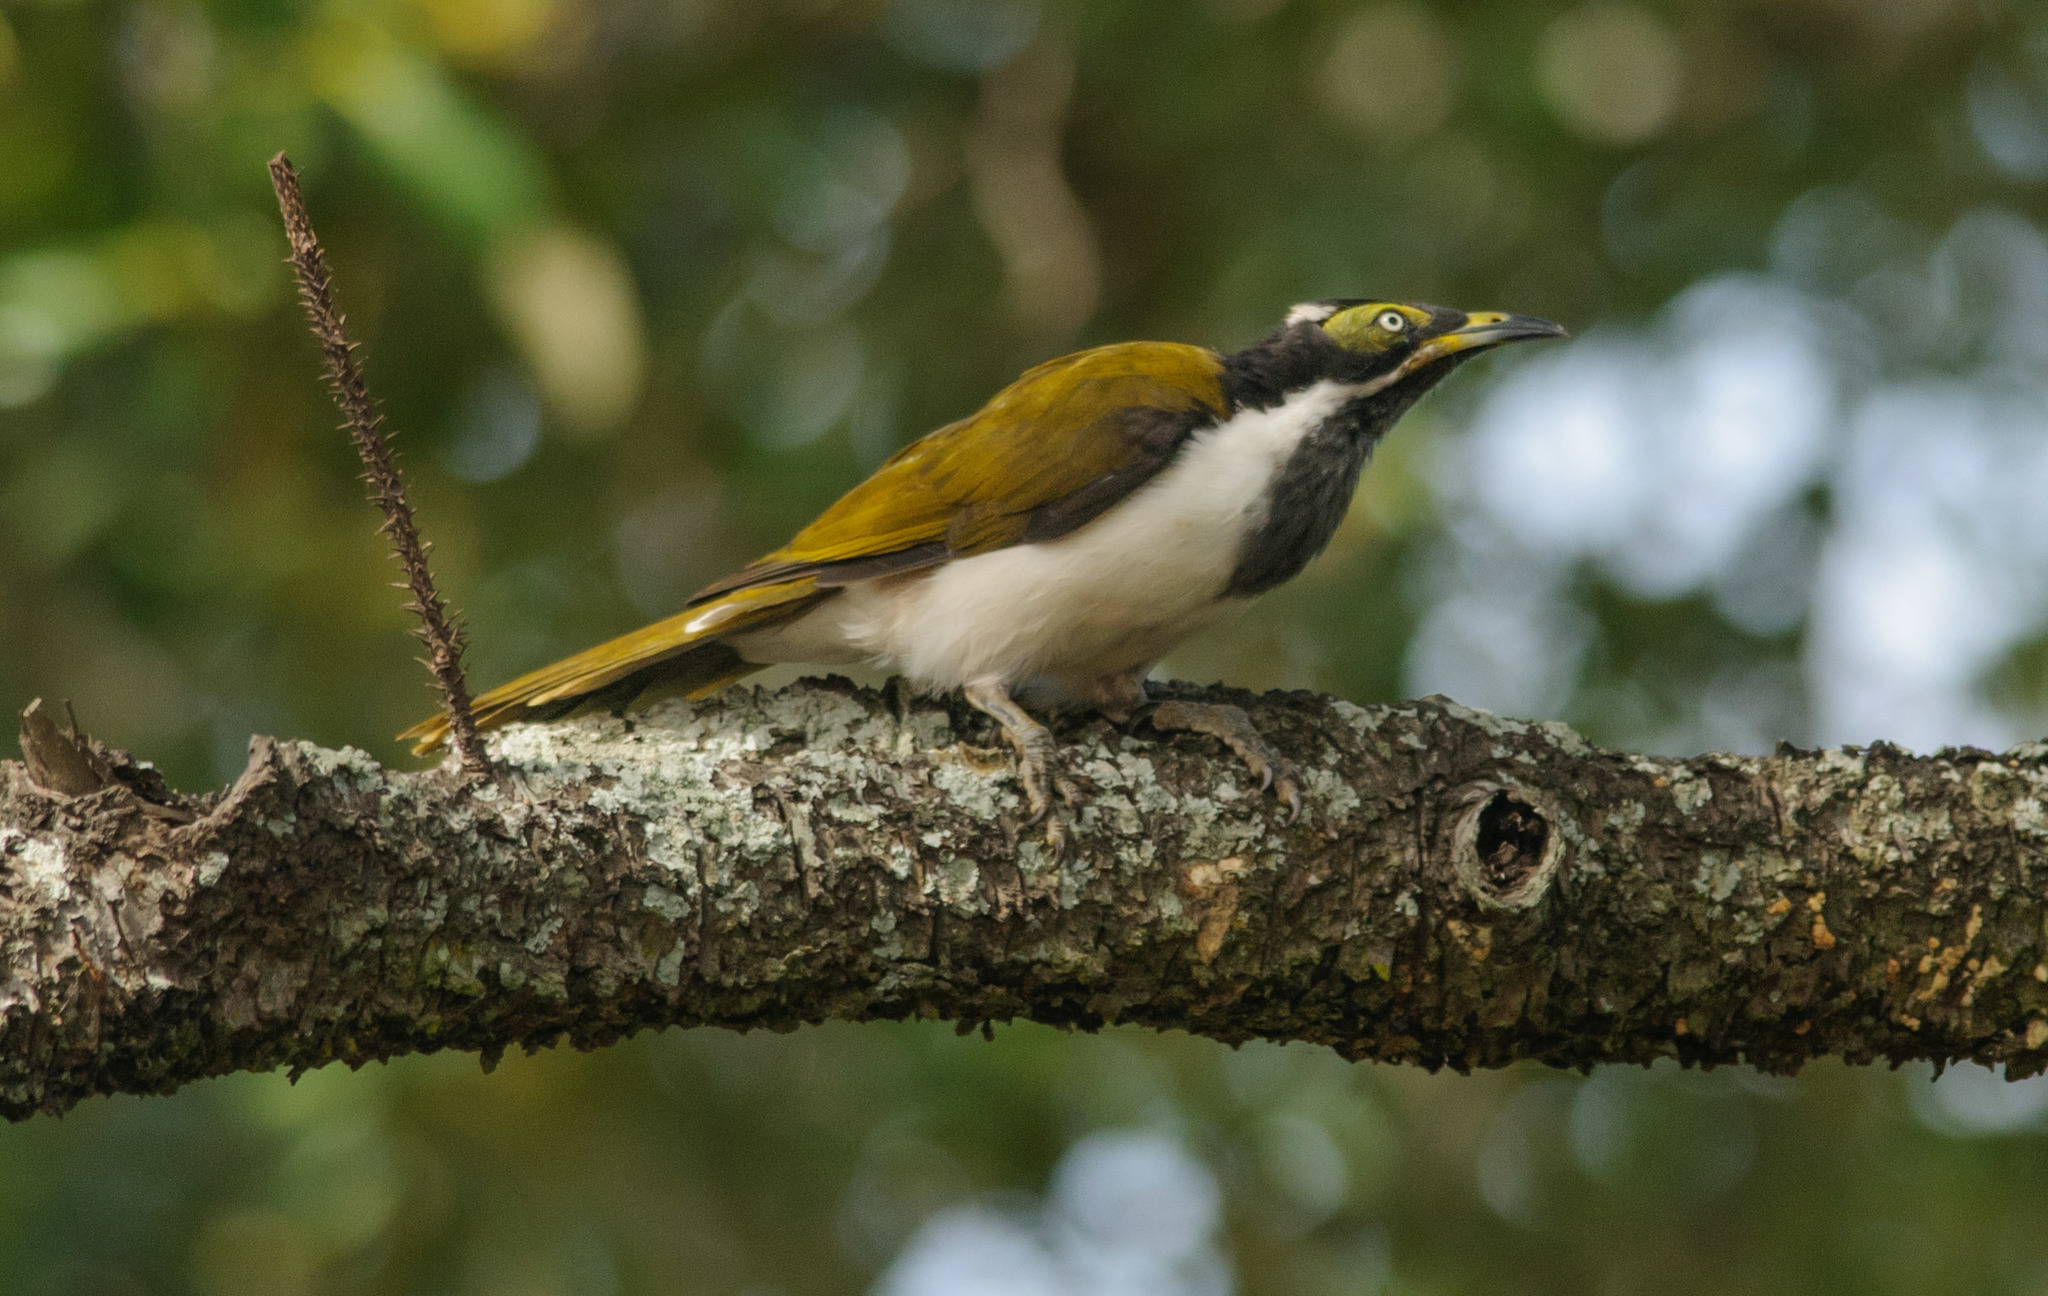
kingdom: Animalia
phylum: Chordata
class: Aves
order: Passeriformes
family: Meliphagidae
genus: Entomyzon
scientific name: Entomyzon cyanotis
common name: Blue-faced honeyeater
